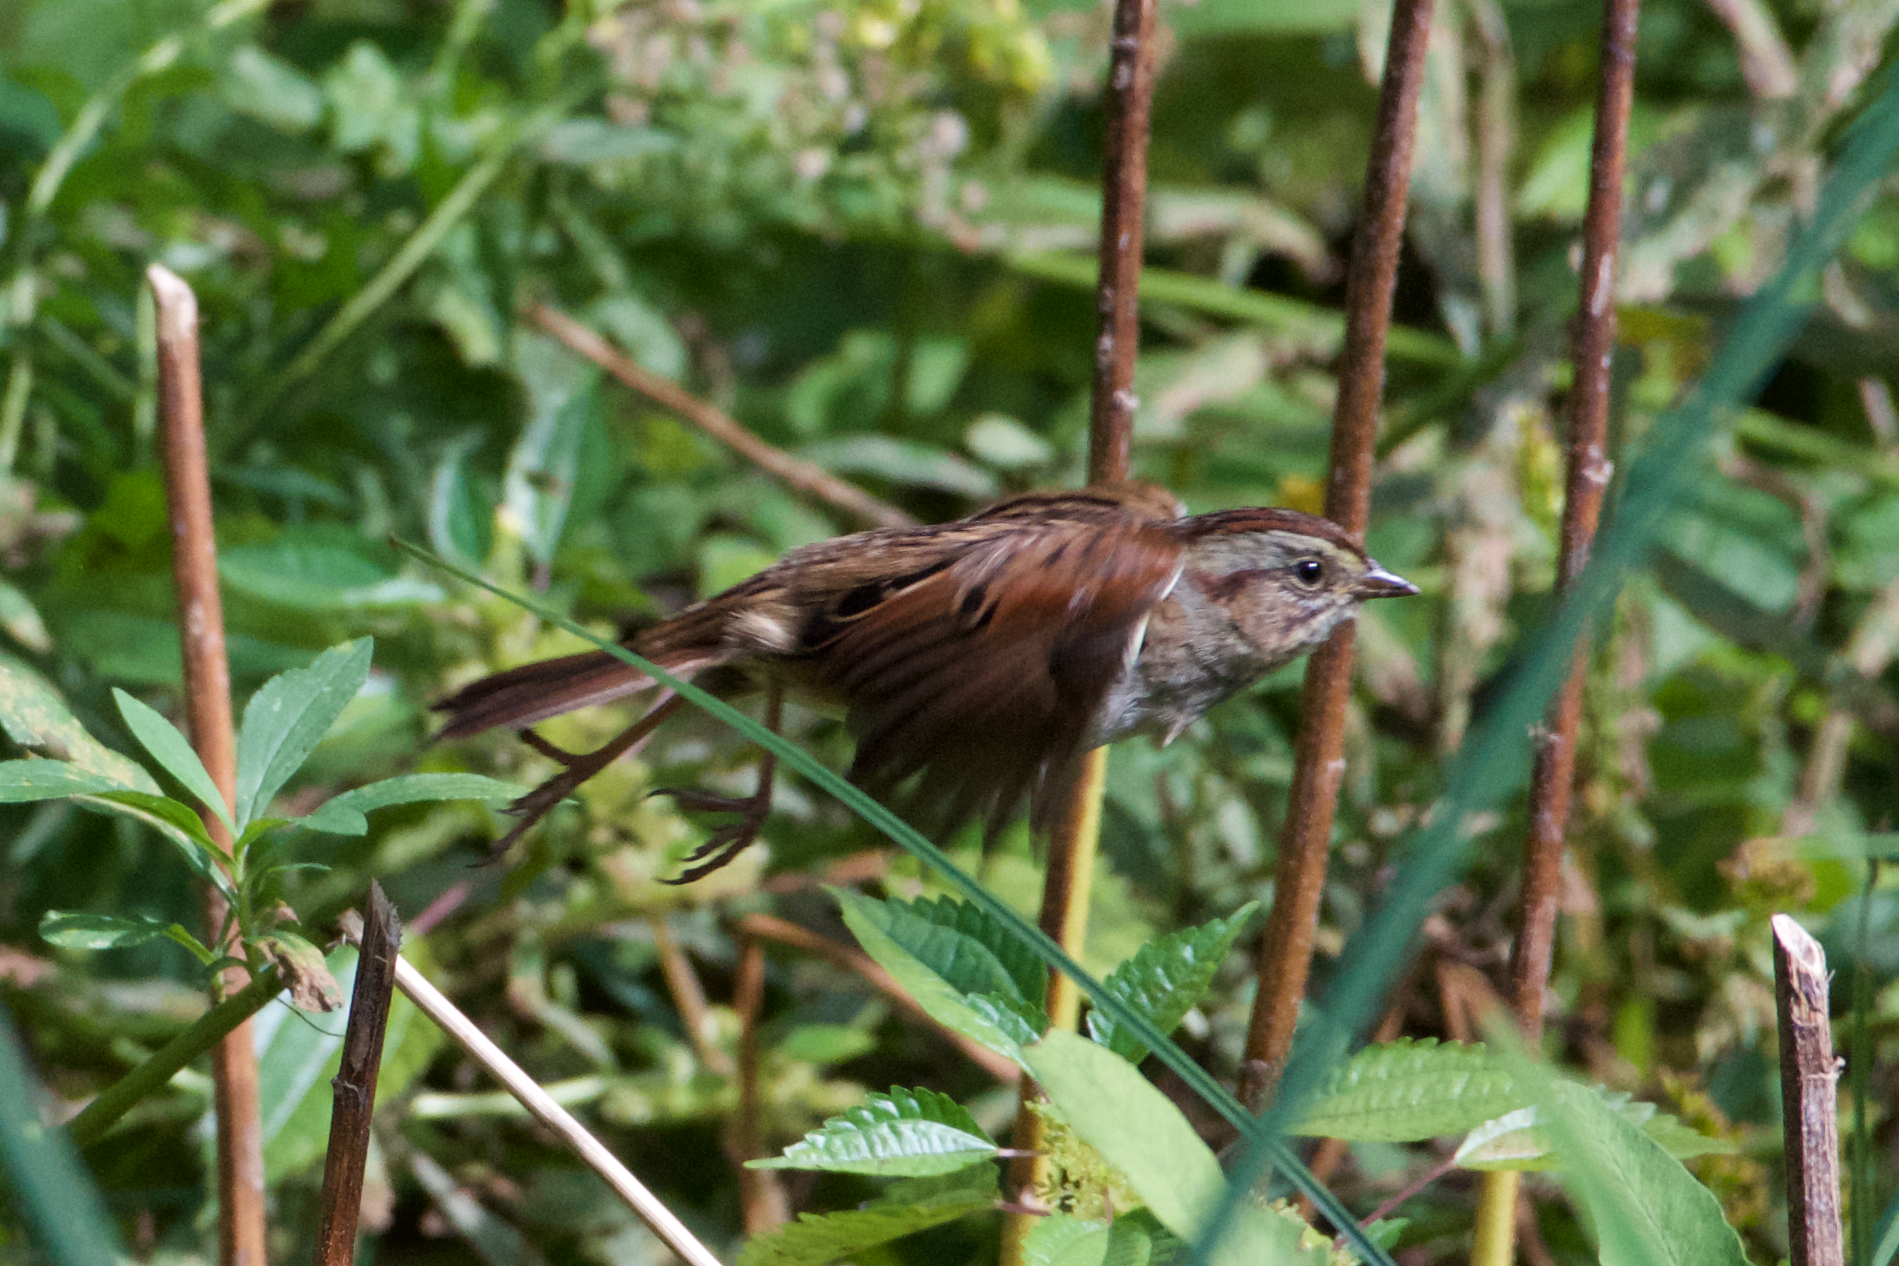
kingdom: Animalia
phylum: Chordata
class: Aves
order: Passeriformes
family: Passerellidae
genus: Melospiza
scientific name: Melospiza georgiana
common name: Swamp sparrow
